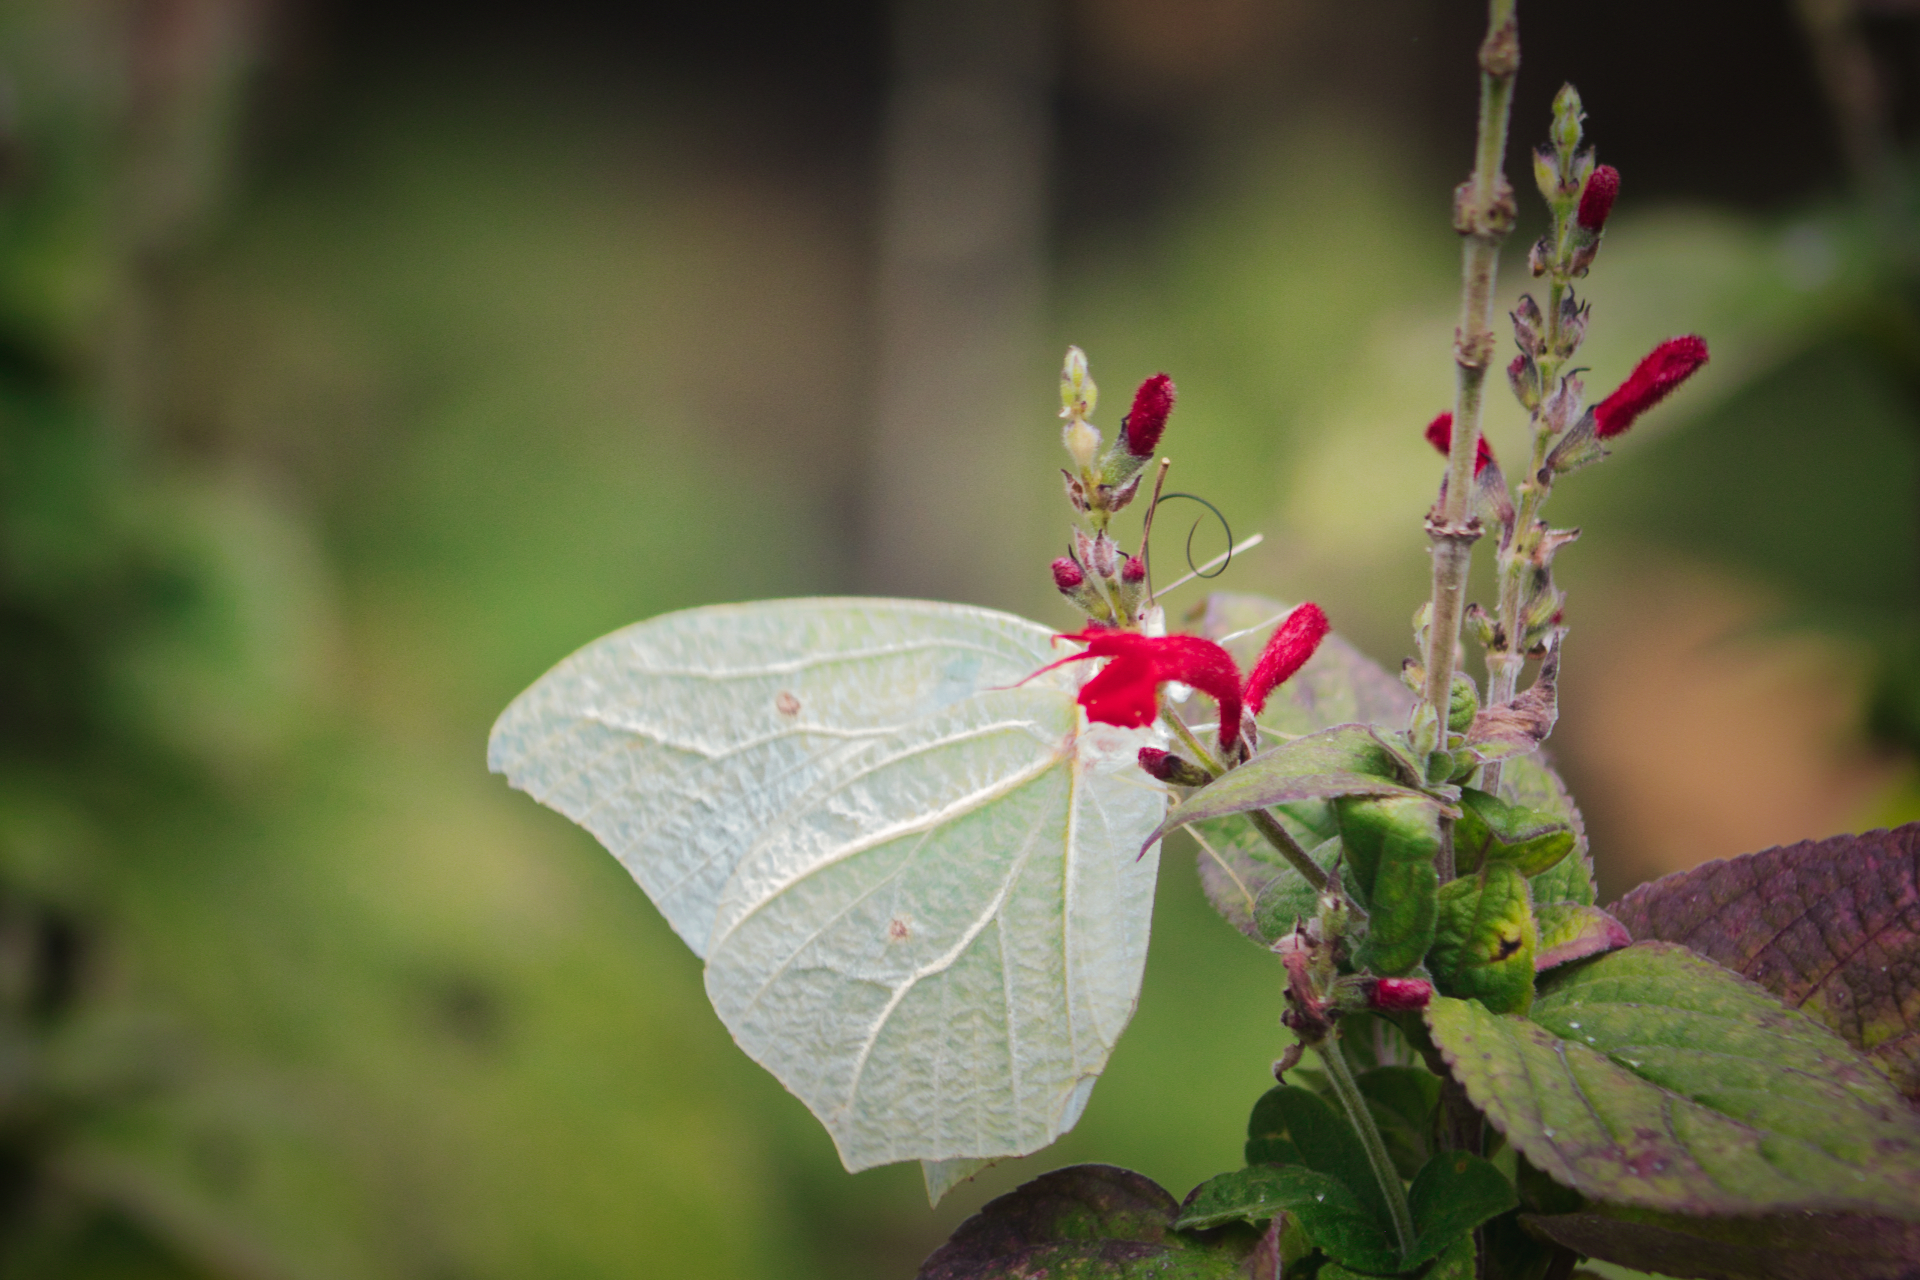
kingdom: Animalia
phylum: Arthropoda
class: Insecta
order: Lepidoptera
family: Pieridae
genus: Anteos
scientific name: Anteos clorinde
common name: White angled sulphur
